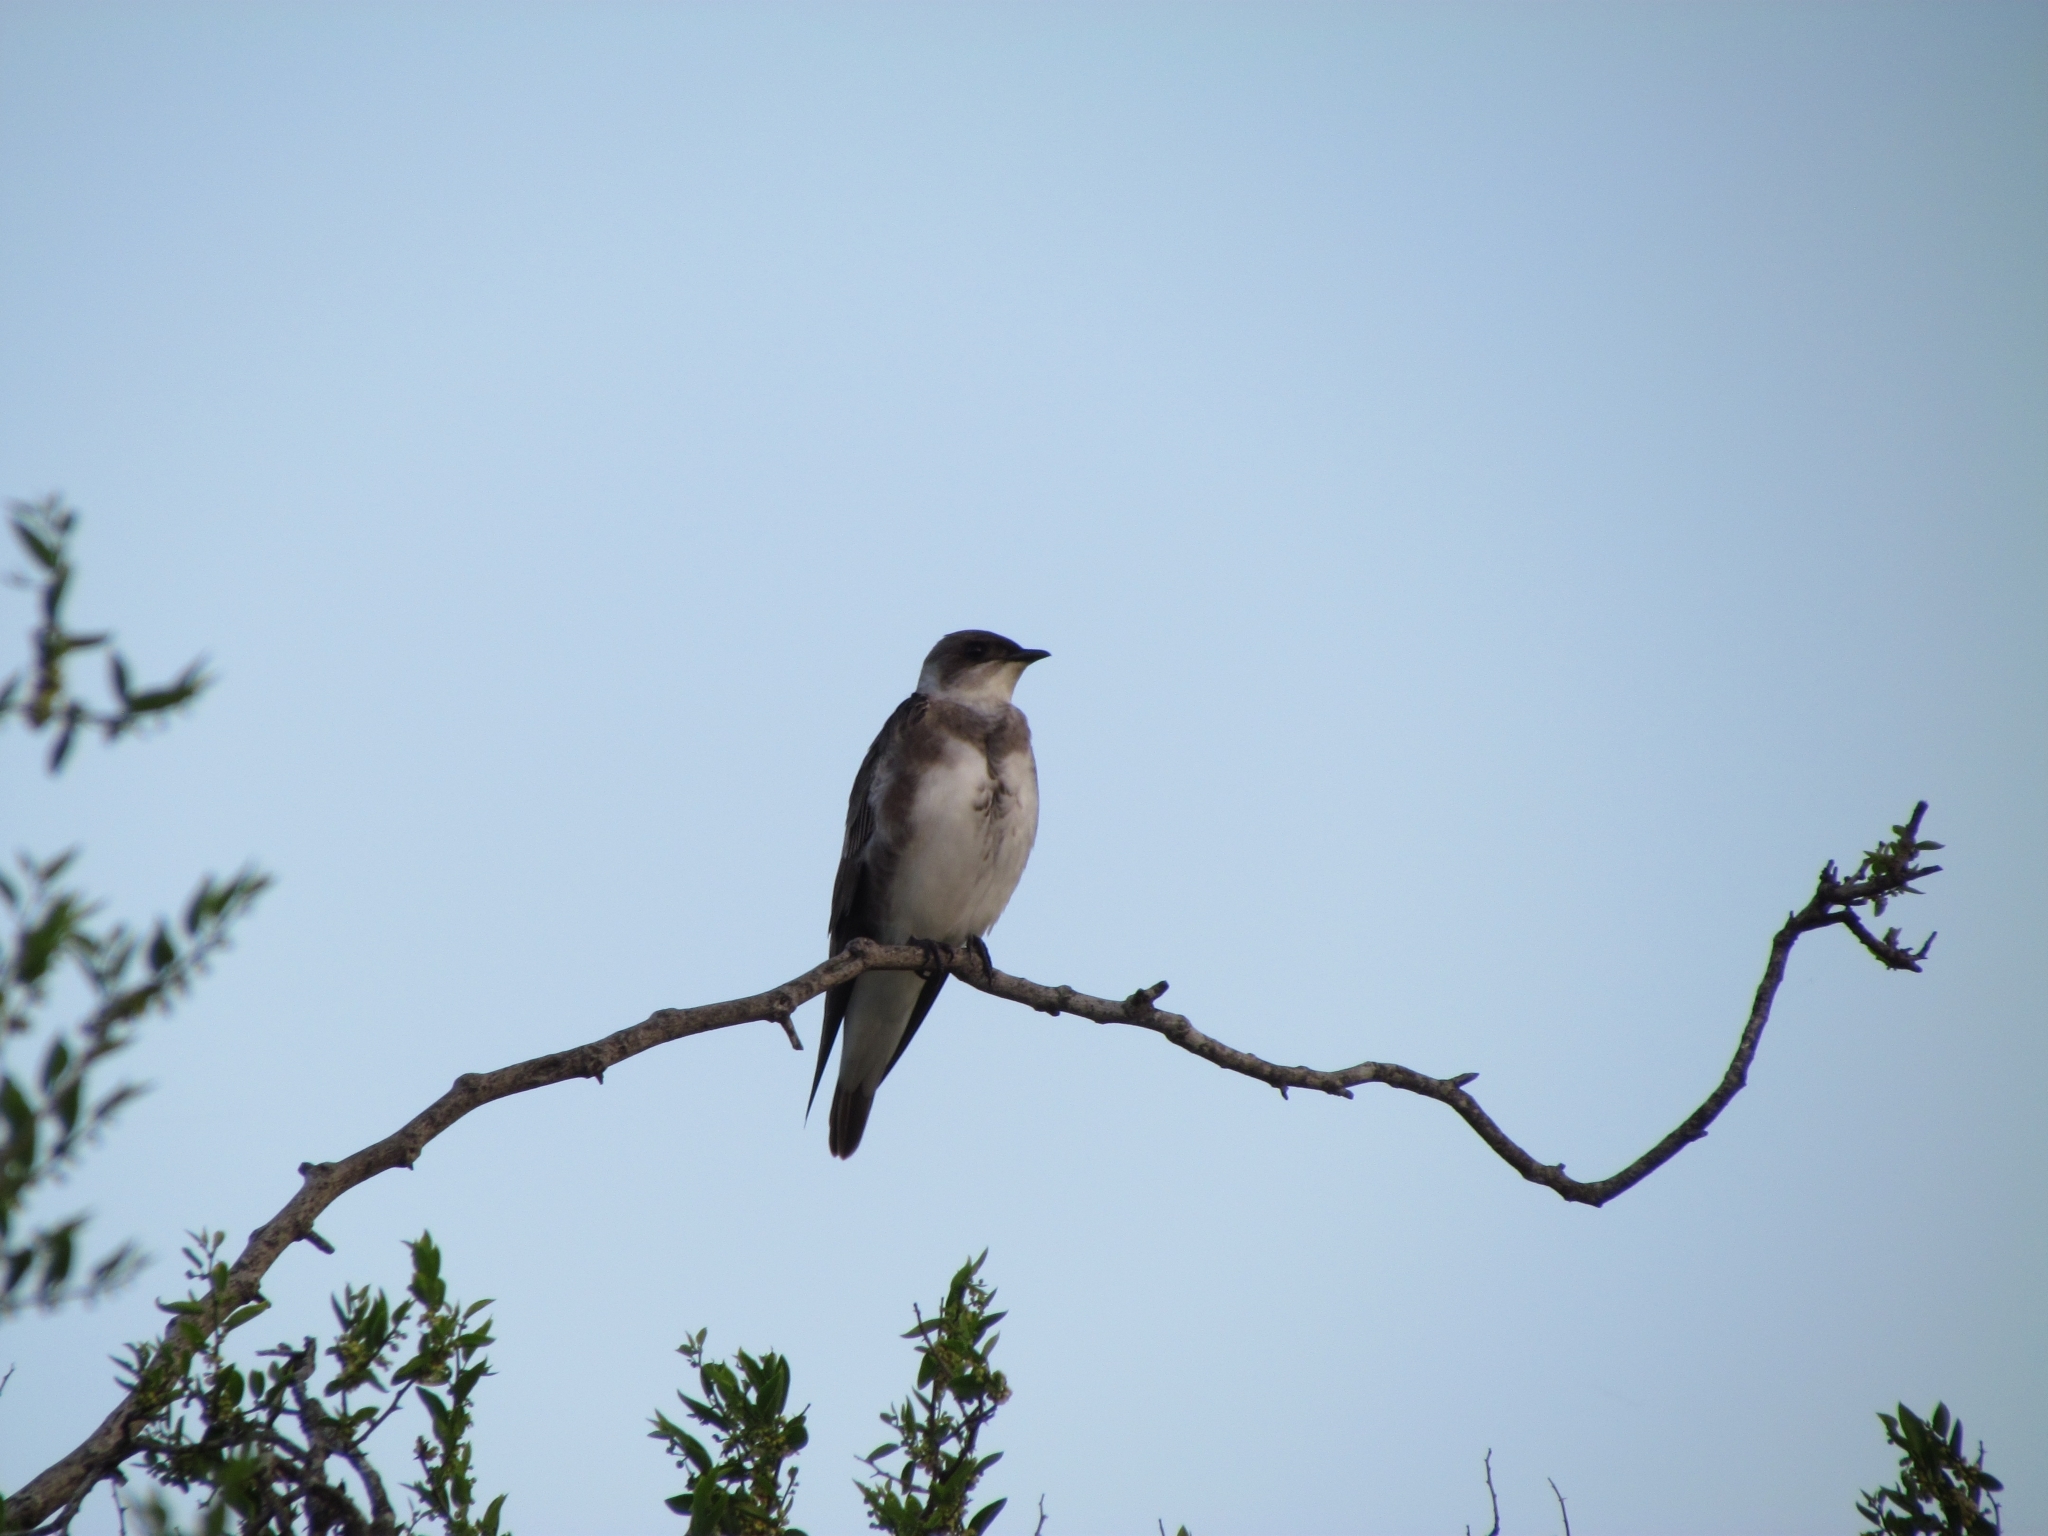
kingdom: Animalia
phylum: Chordata
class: Aves
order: Passeriformes
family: Hirundinidae
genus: Progne
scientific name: Progne tapera
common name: Brown-chested martin
